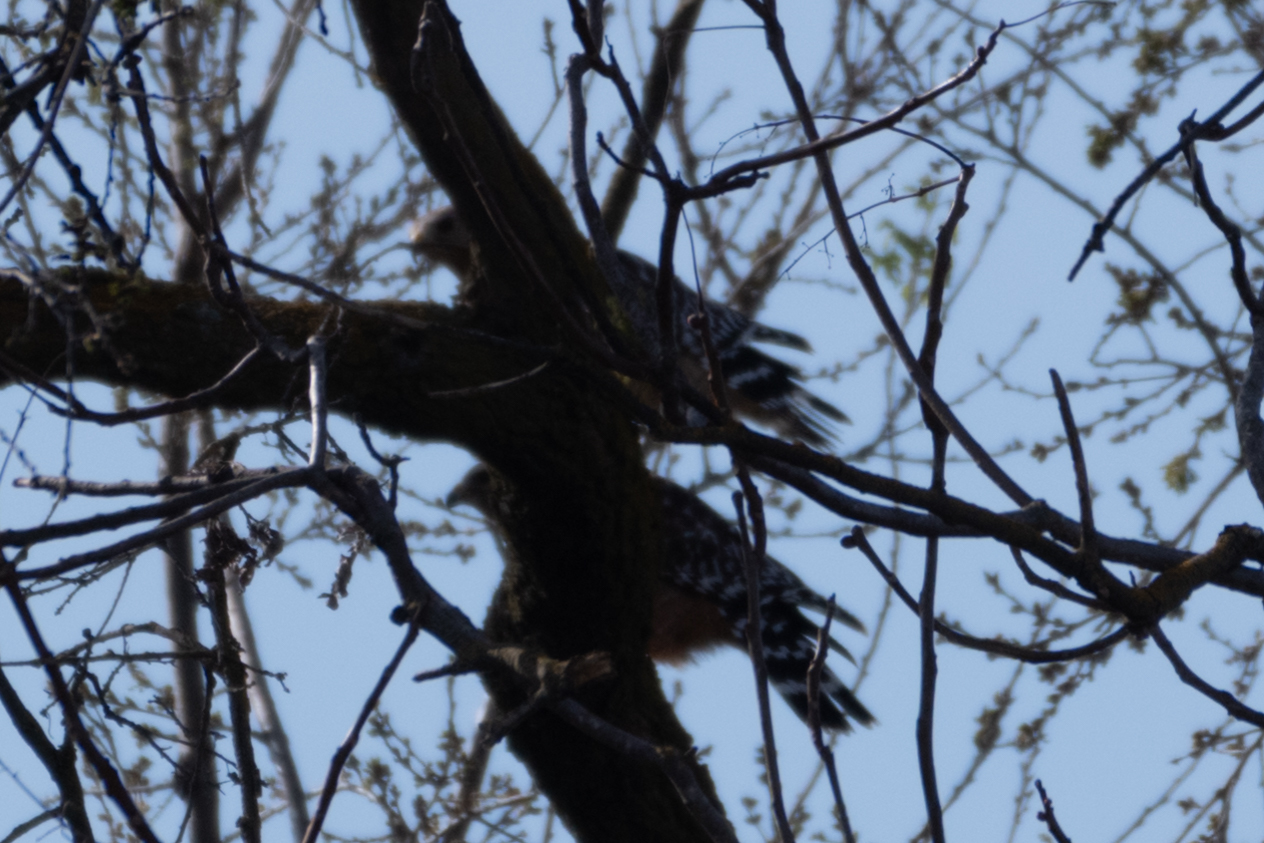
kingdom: Animalia
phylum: Chordata
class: Aves
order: Accipitriformes
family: Accipitridae
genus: Buteo
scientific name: Buteo lineatus
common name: Red-shouldered hawk
